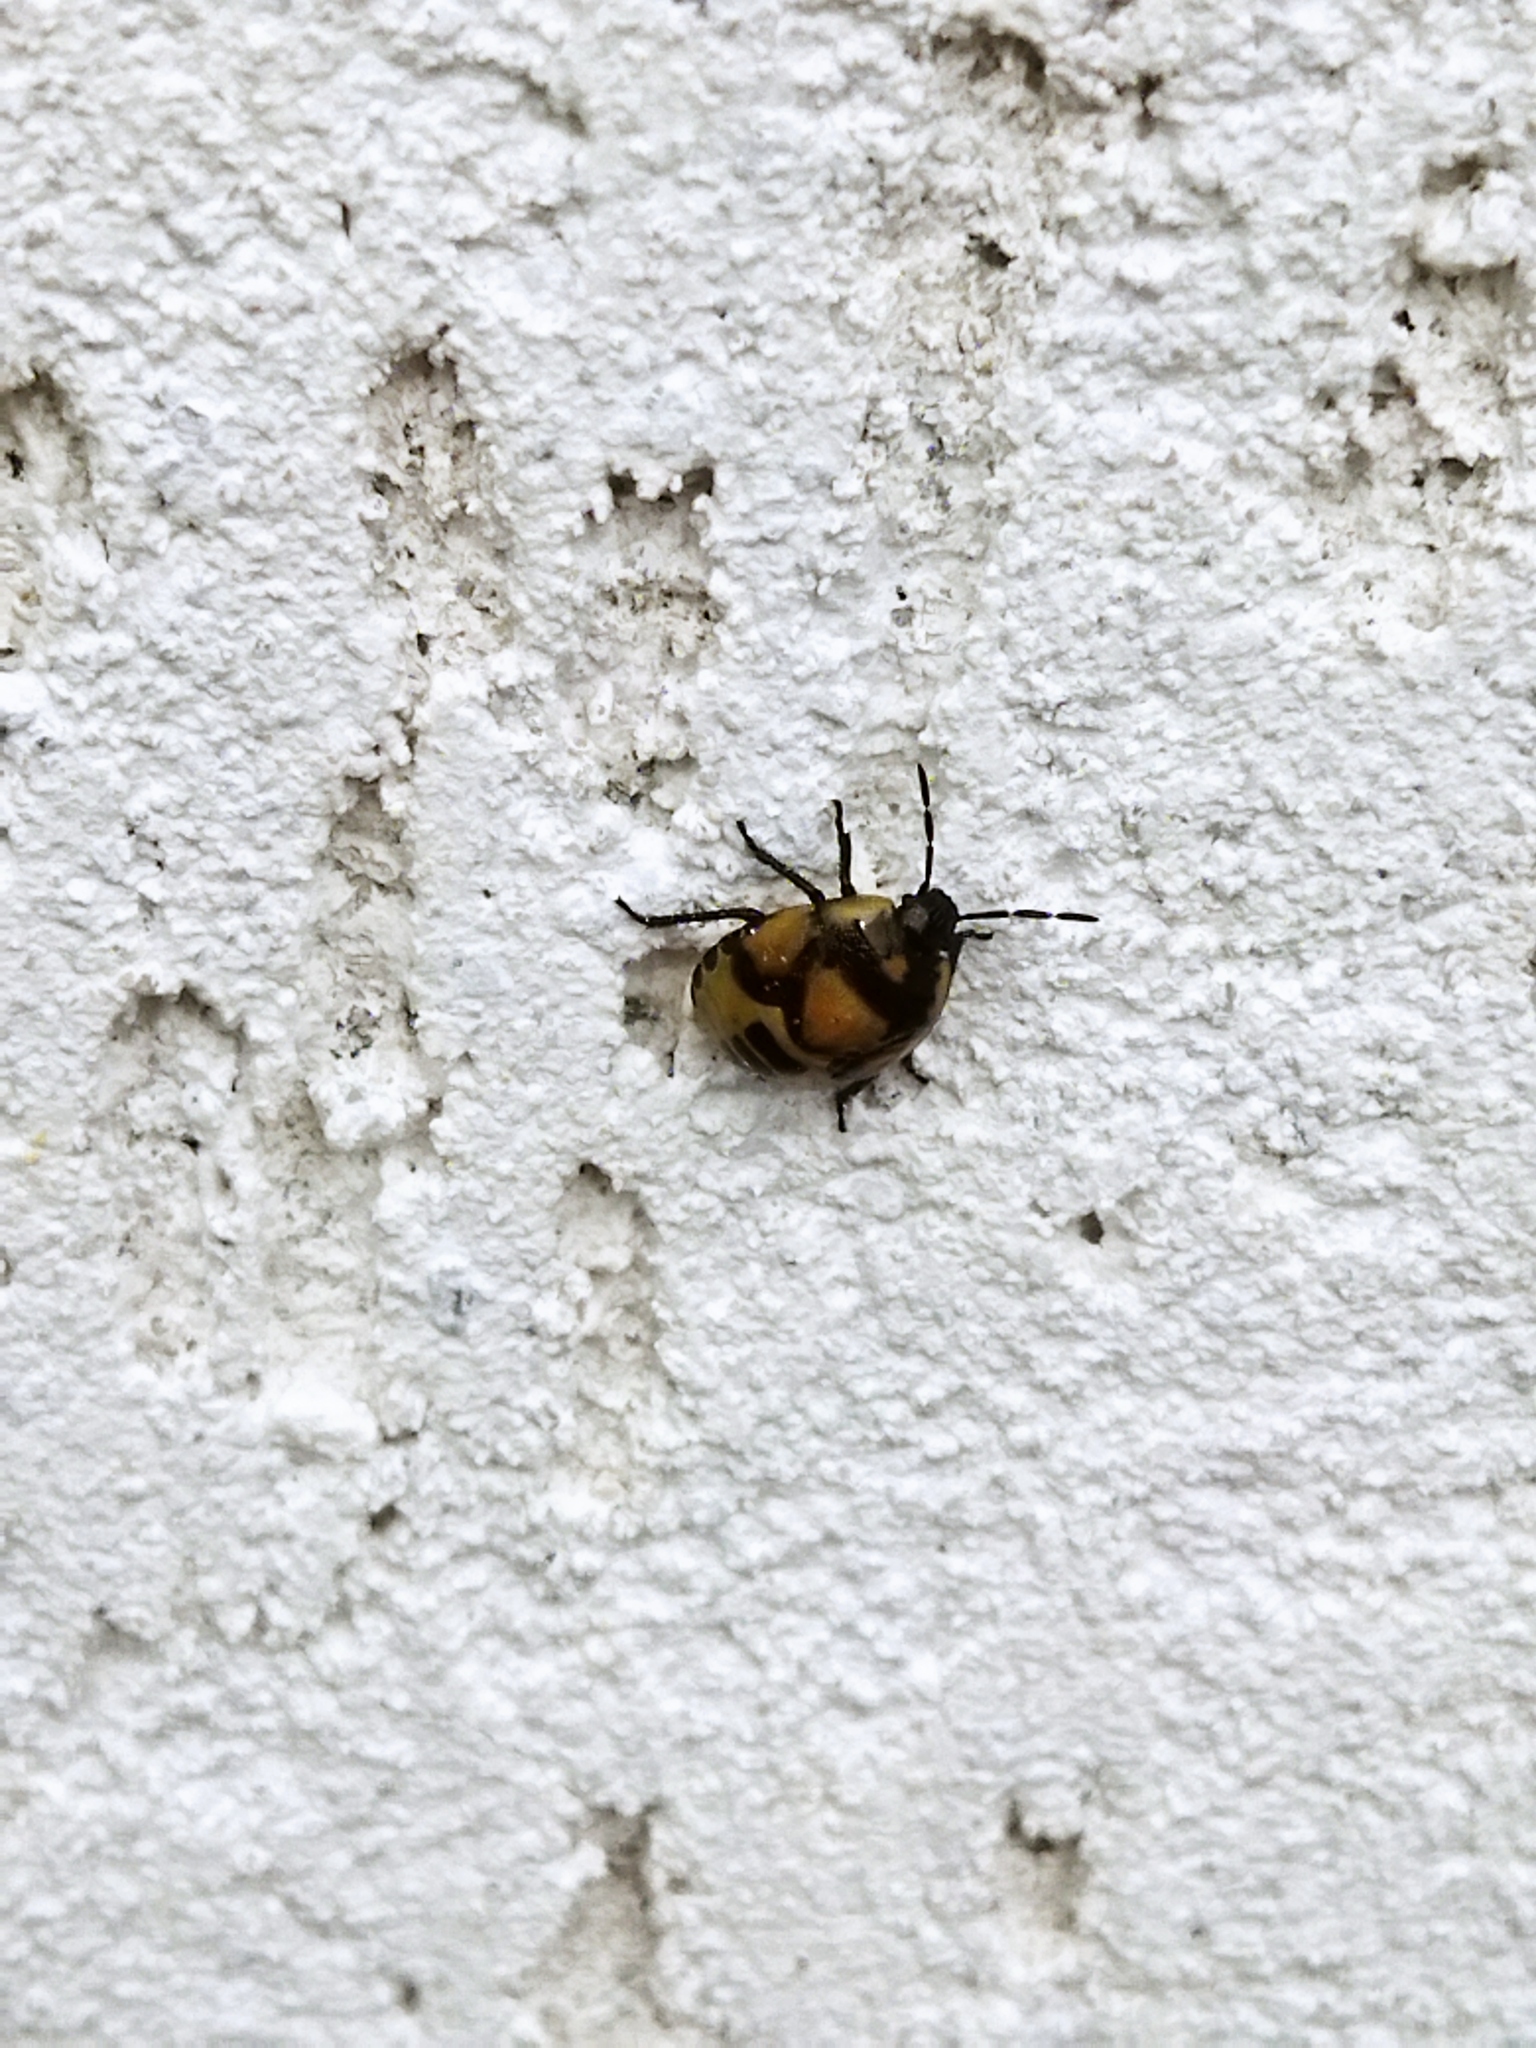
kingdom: Animalia
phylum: Arthropoda
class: Insecta
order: Hemiptera
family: Cydnidae
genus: Tritomegas
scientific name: Tritomegas bicolor
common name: Pied shieldbug
